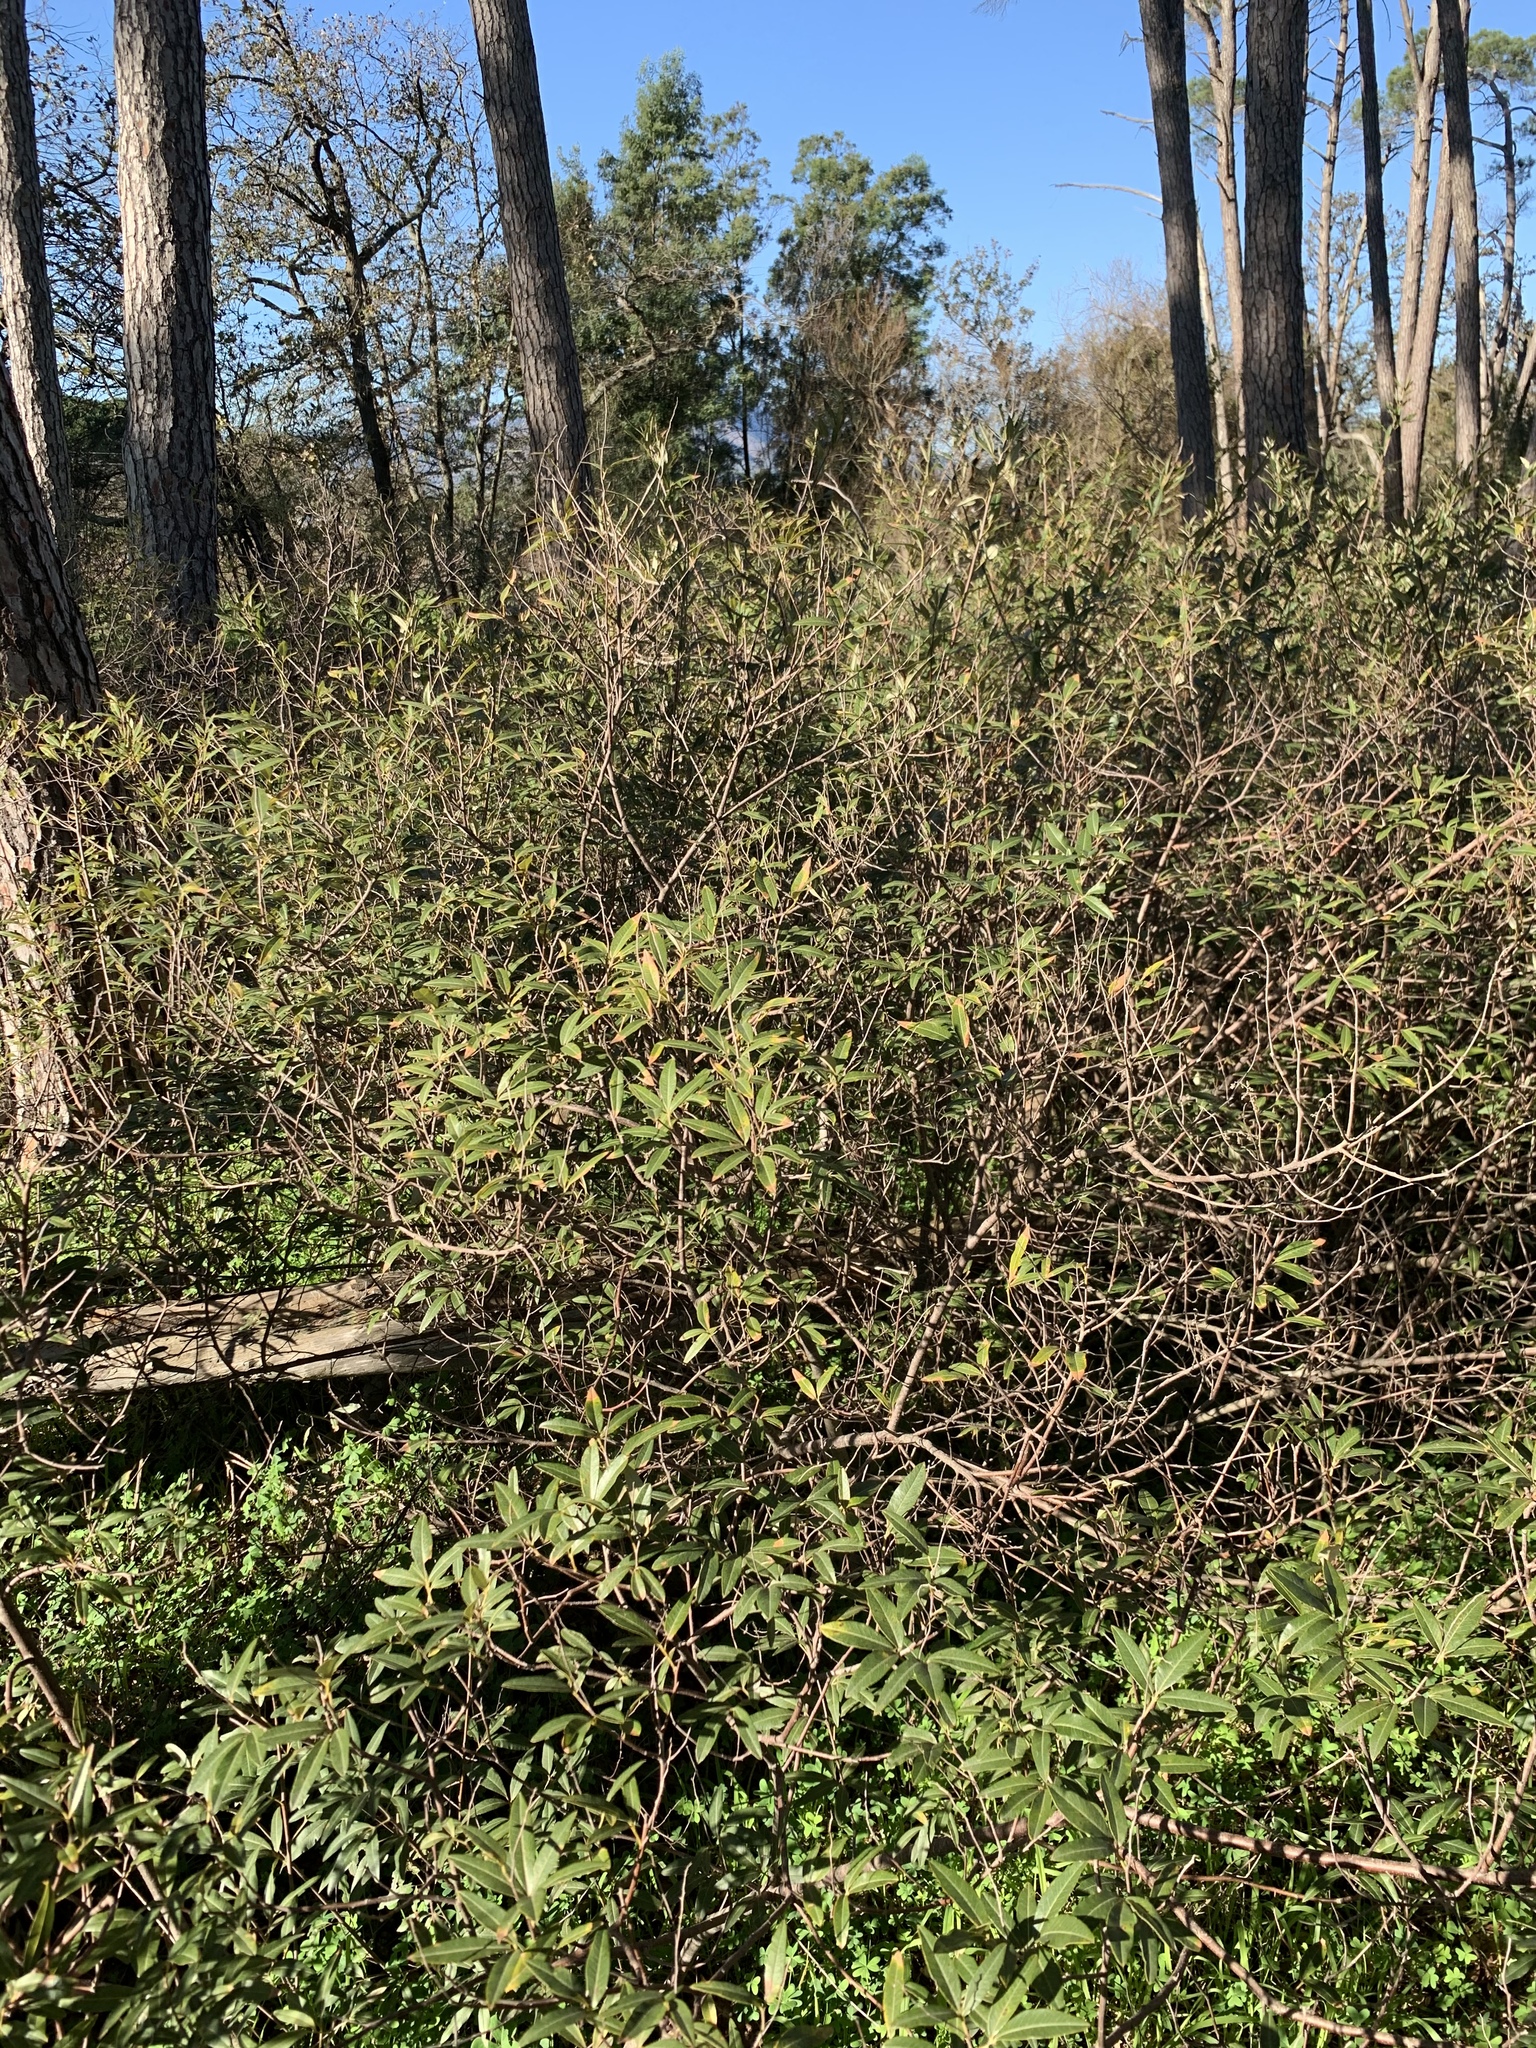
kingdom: Plantae
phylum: Tracheophyta
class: Magnoliopsida
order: Sapindales
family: Anacardiaceae
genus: Searsia
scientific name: Searsia angustifolia
